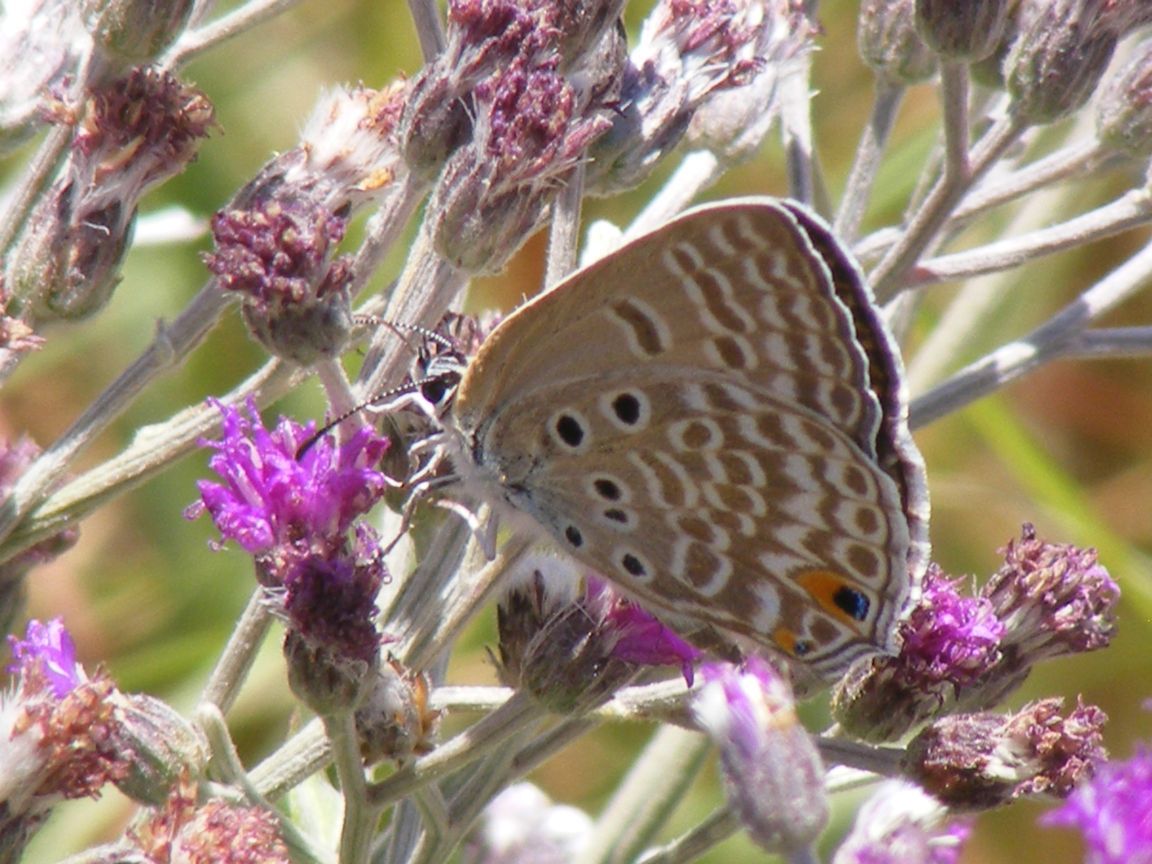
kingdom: Animalia
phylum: Arthropoda
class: Insecta
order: Lepidoptera
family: Lycaenidae
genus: Lepidochrysops
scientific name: Lepidochrysops plebeia
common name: Twin-spot giant cupid
